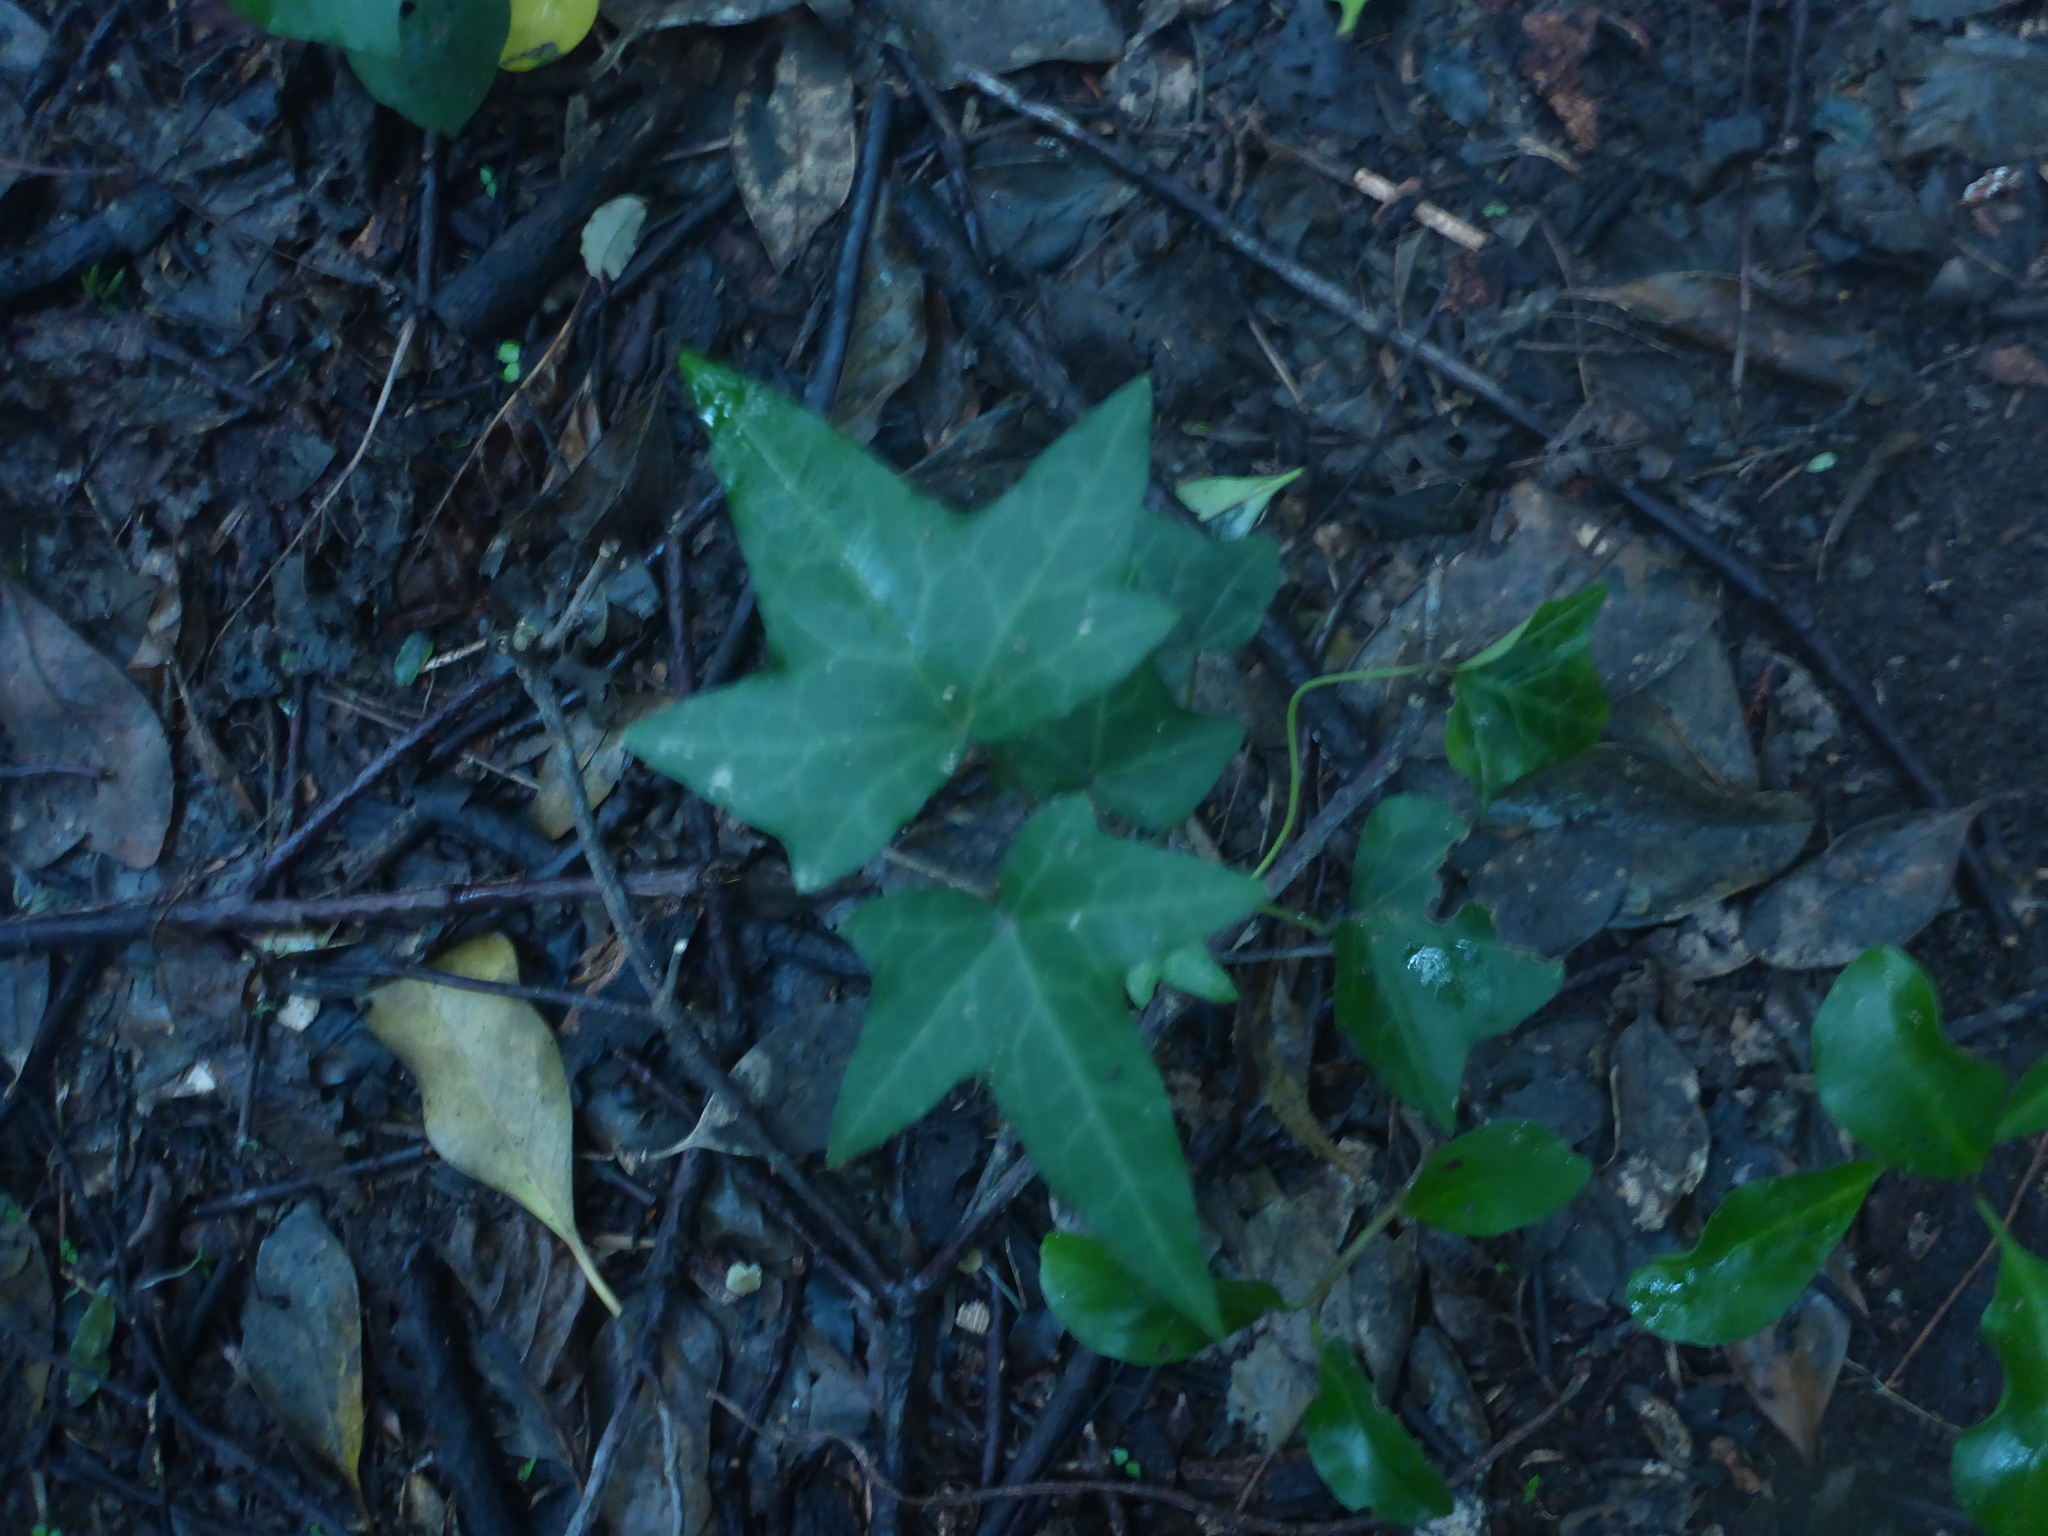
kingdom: Plantae
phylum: Tracheophyta
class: Magnoliopsida
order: Apiales
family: Araliaceae
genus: Hedera
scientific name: Hedera helix
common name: Ivy
